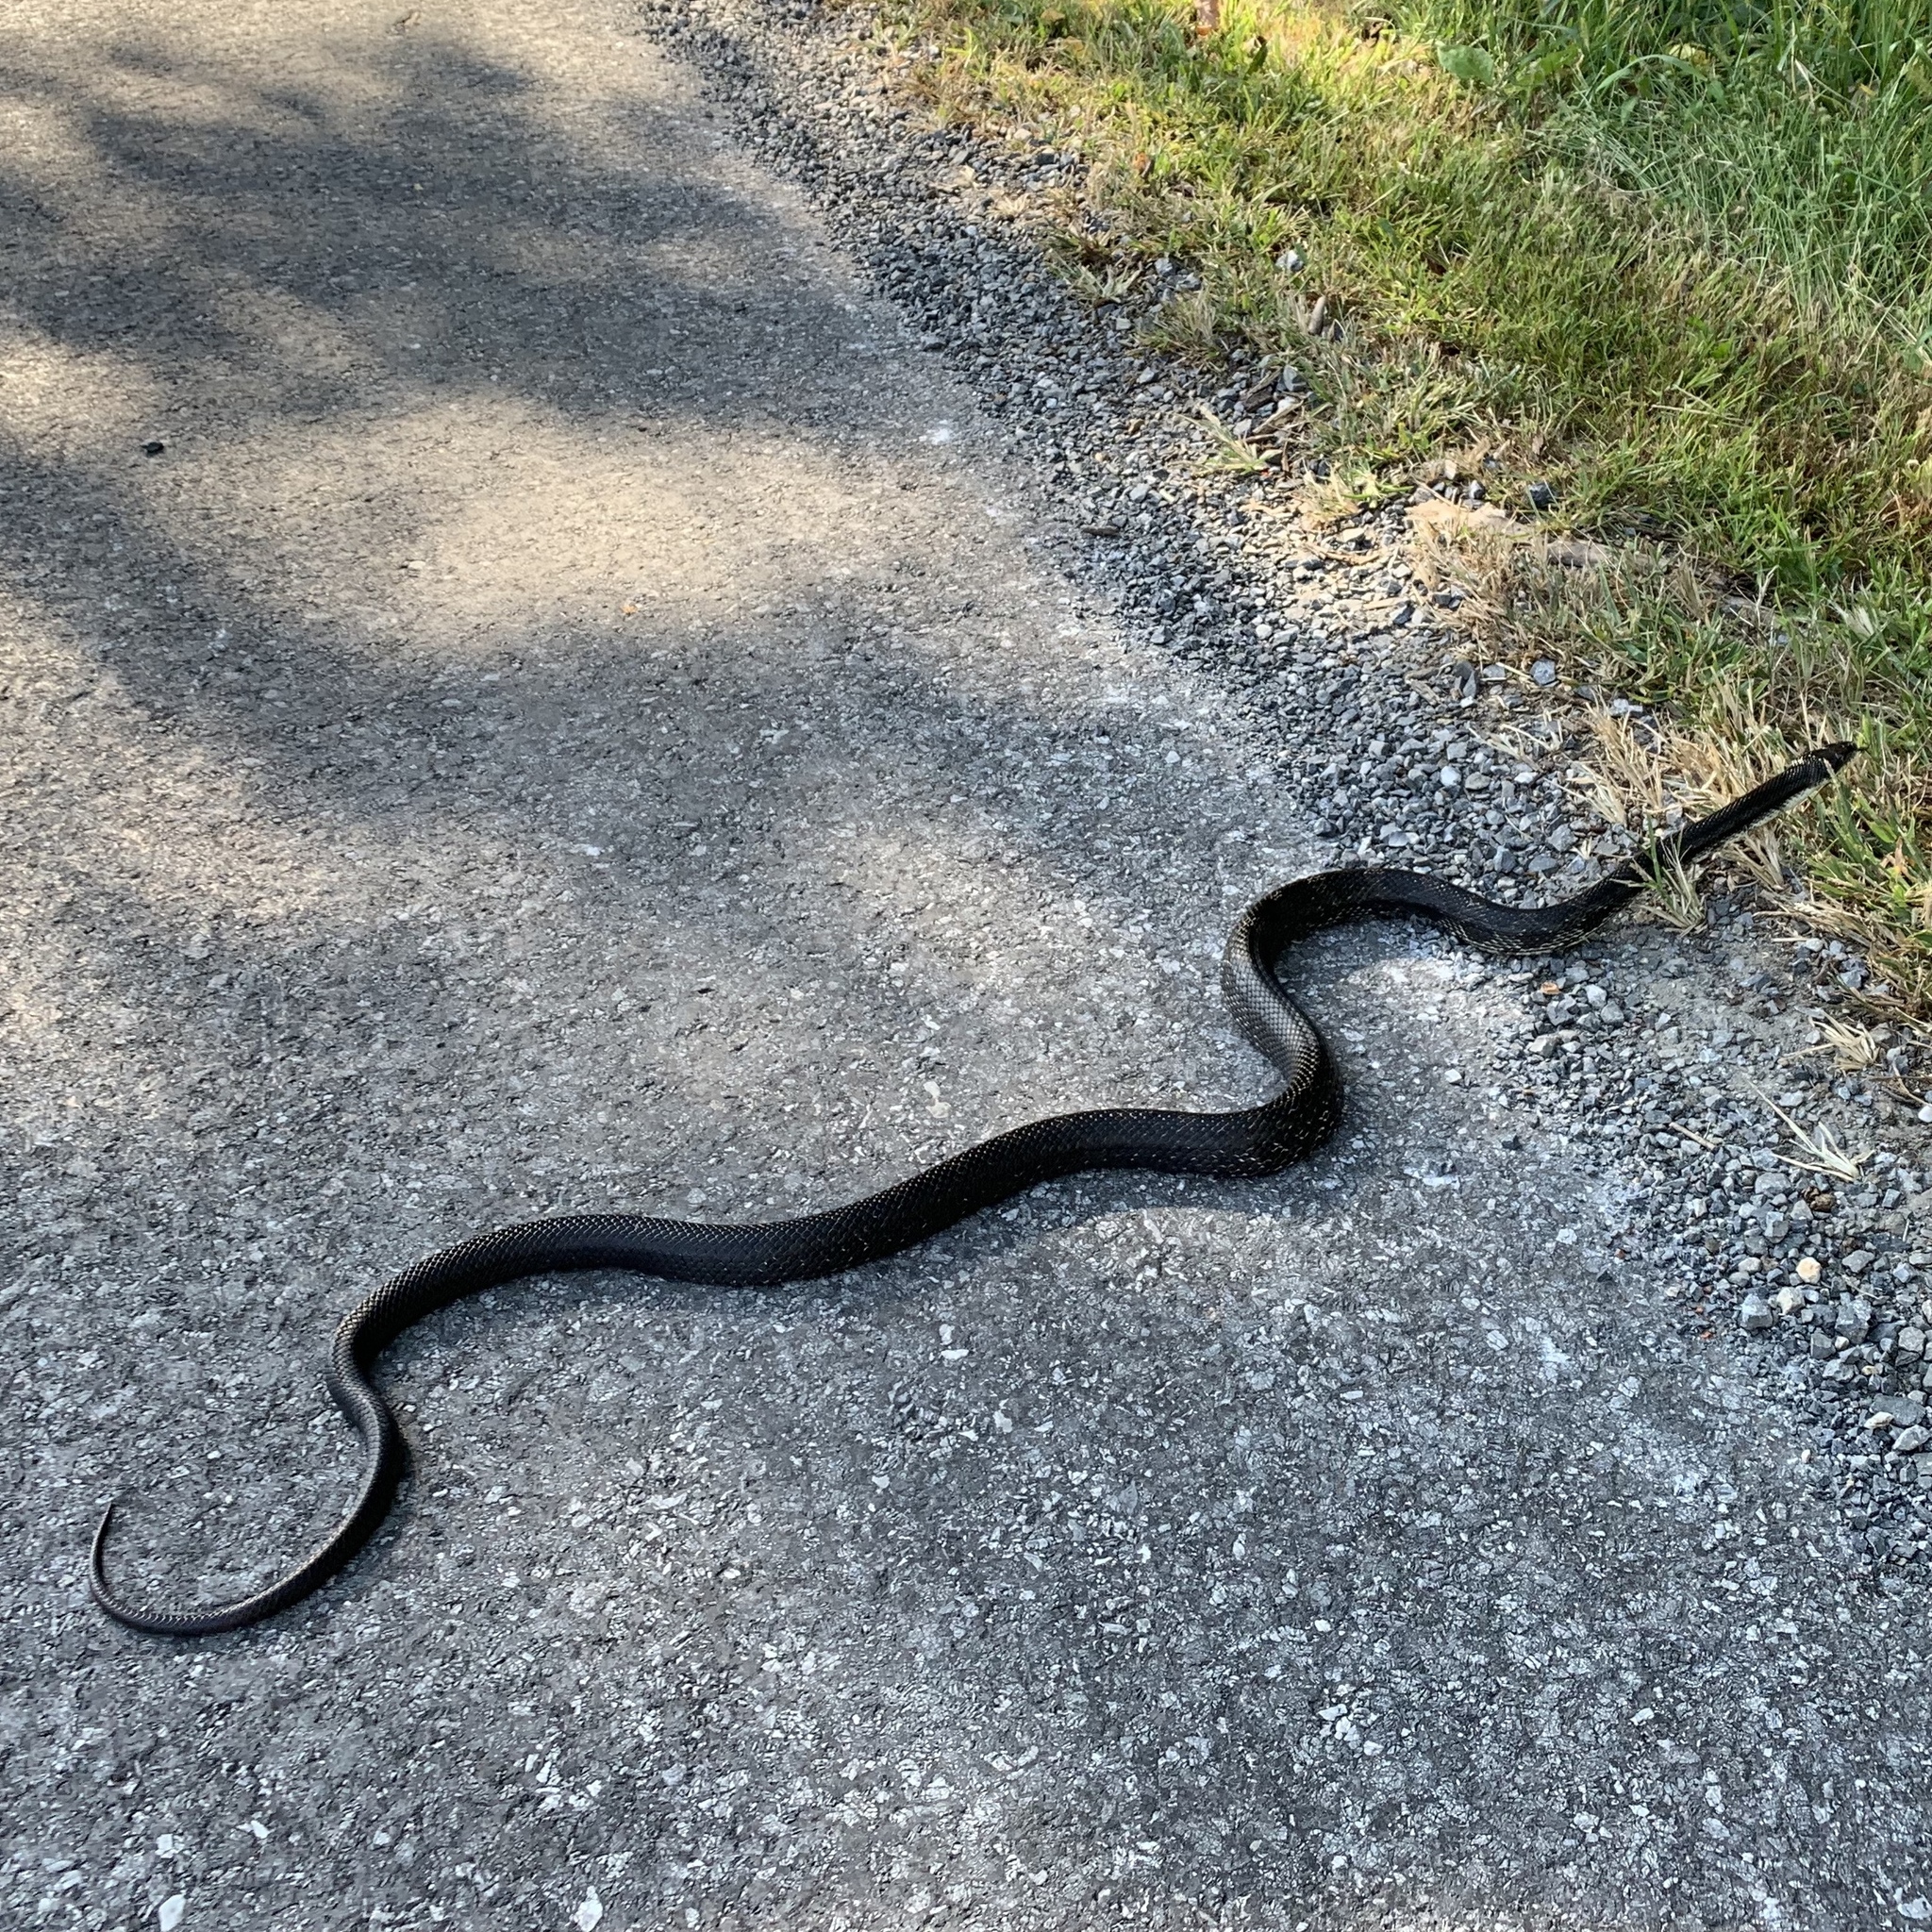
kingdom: Animalia
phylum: Chordata
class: Squamata
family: Colubridae
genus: Pantherophis
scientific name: Pantherophis alleghaniensis
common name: Eastern rat snake
